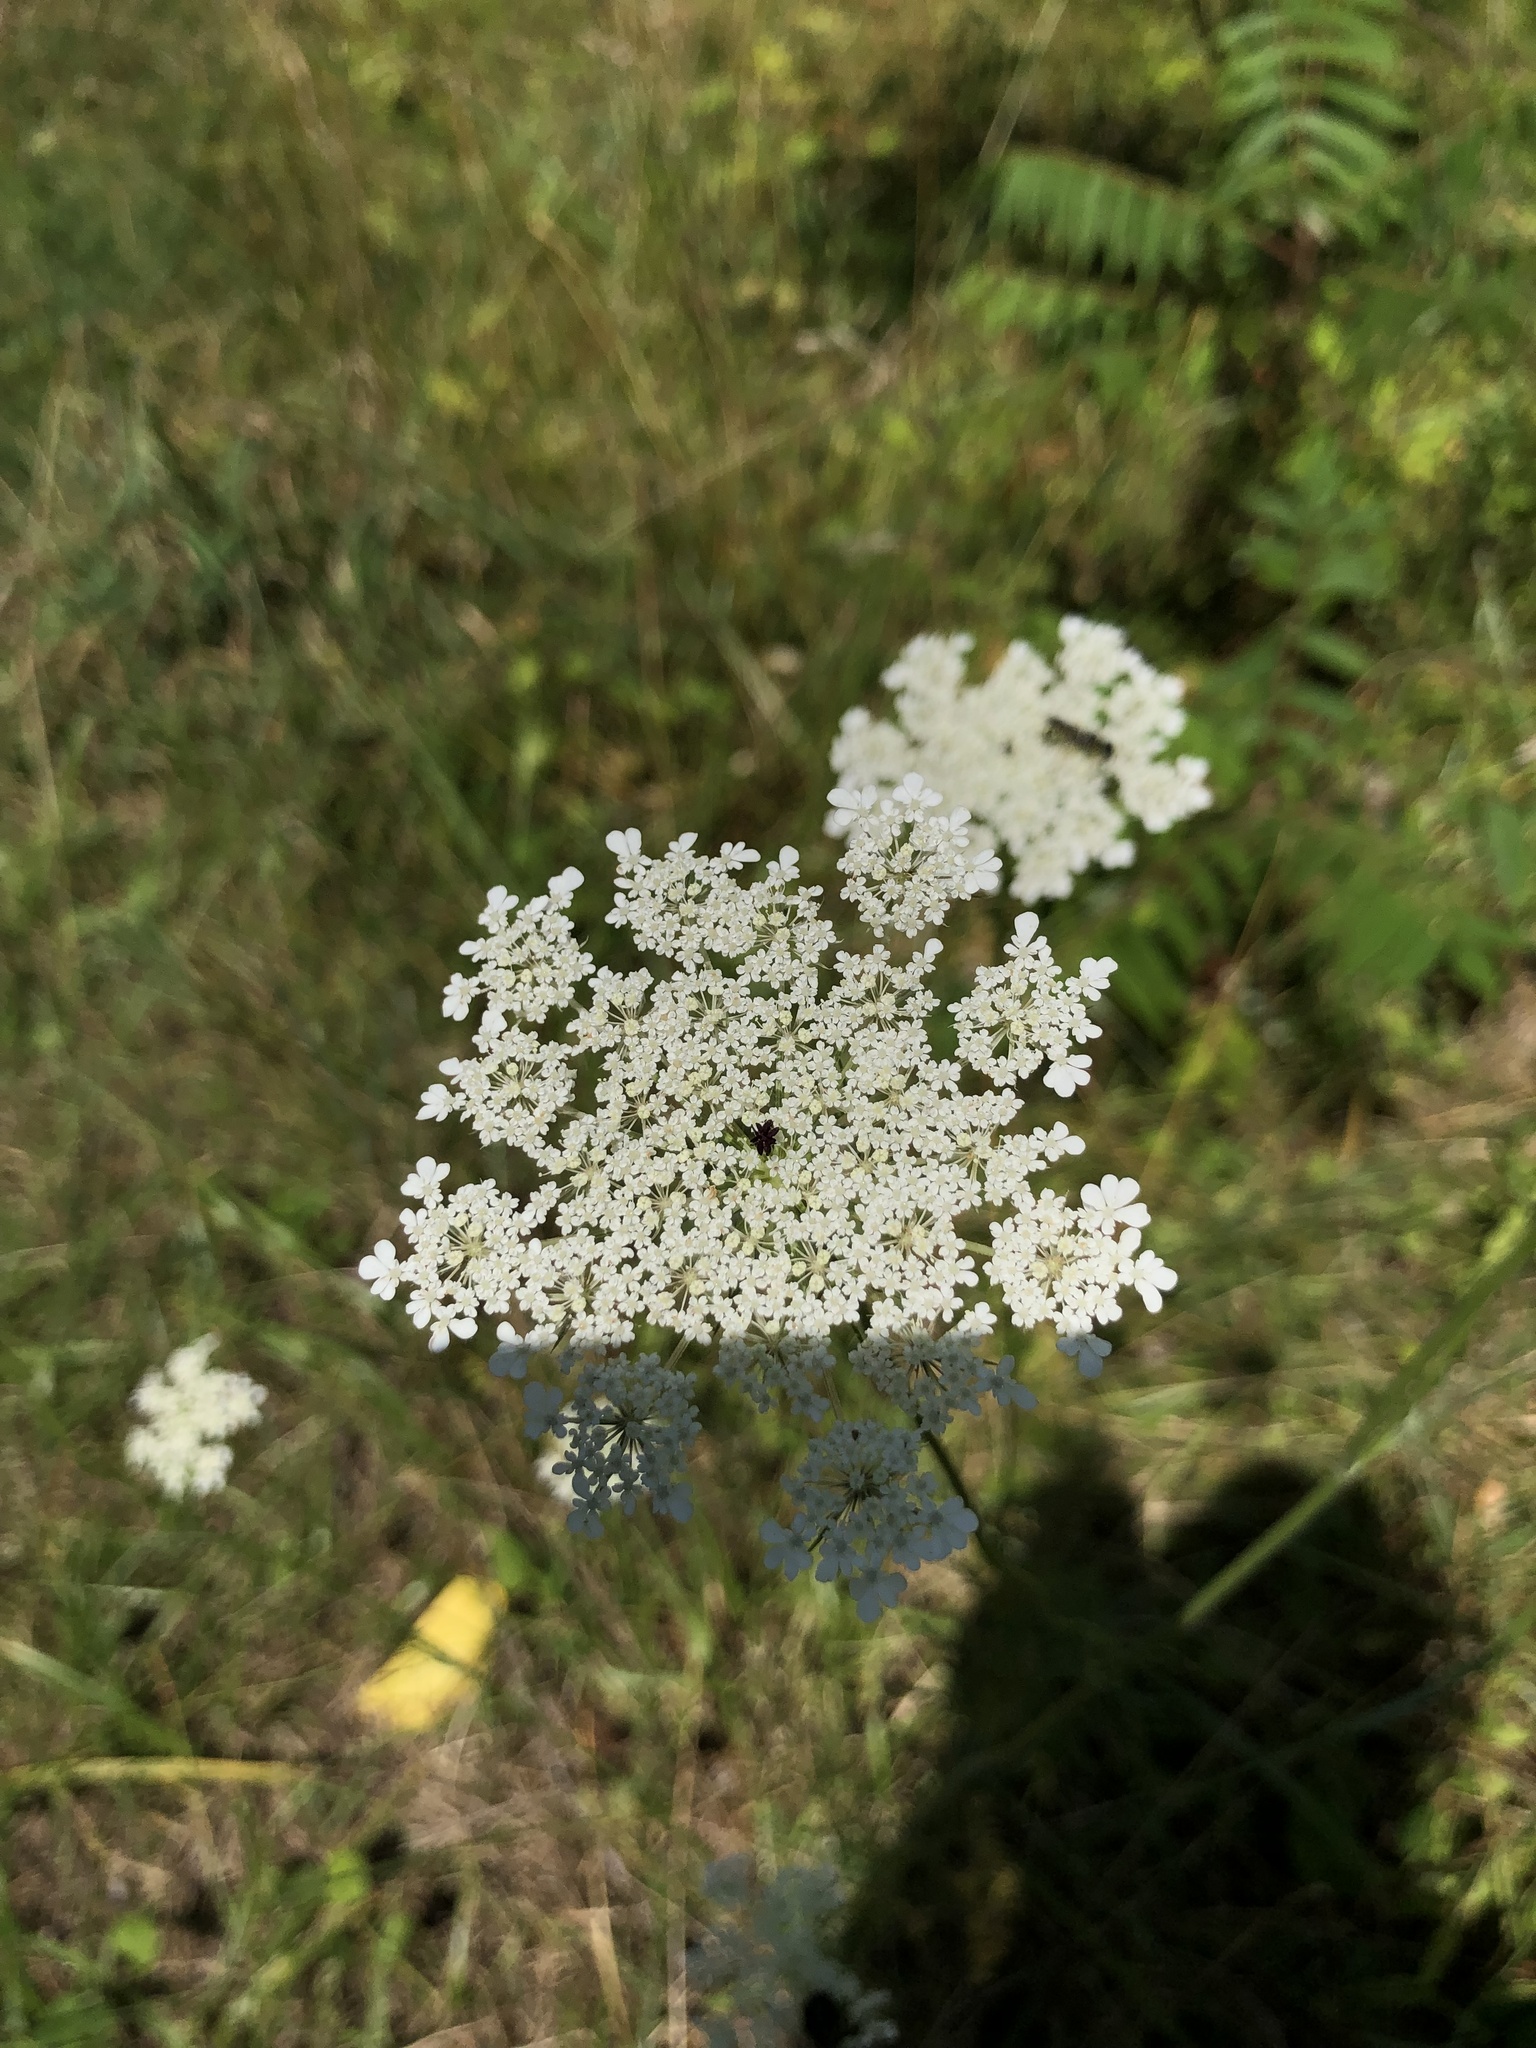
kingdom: Plantae
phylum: Tracheophyta
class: Magnoliopsida
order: Apiales
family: Apiaceae
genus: Daucus
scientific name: Daucus carota
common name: Wild carrot
